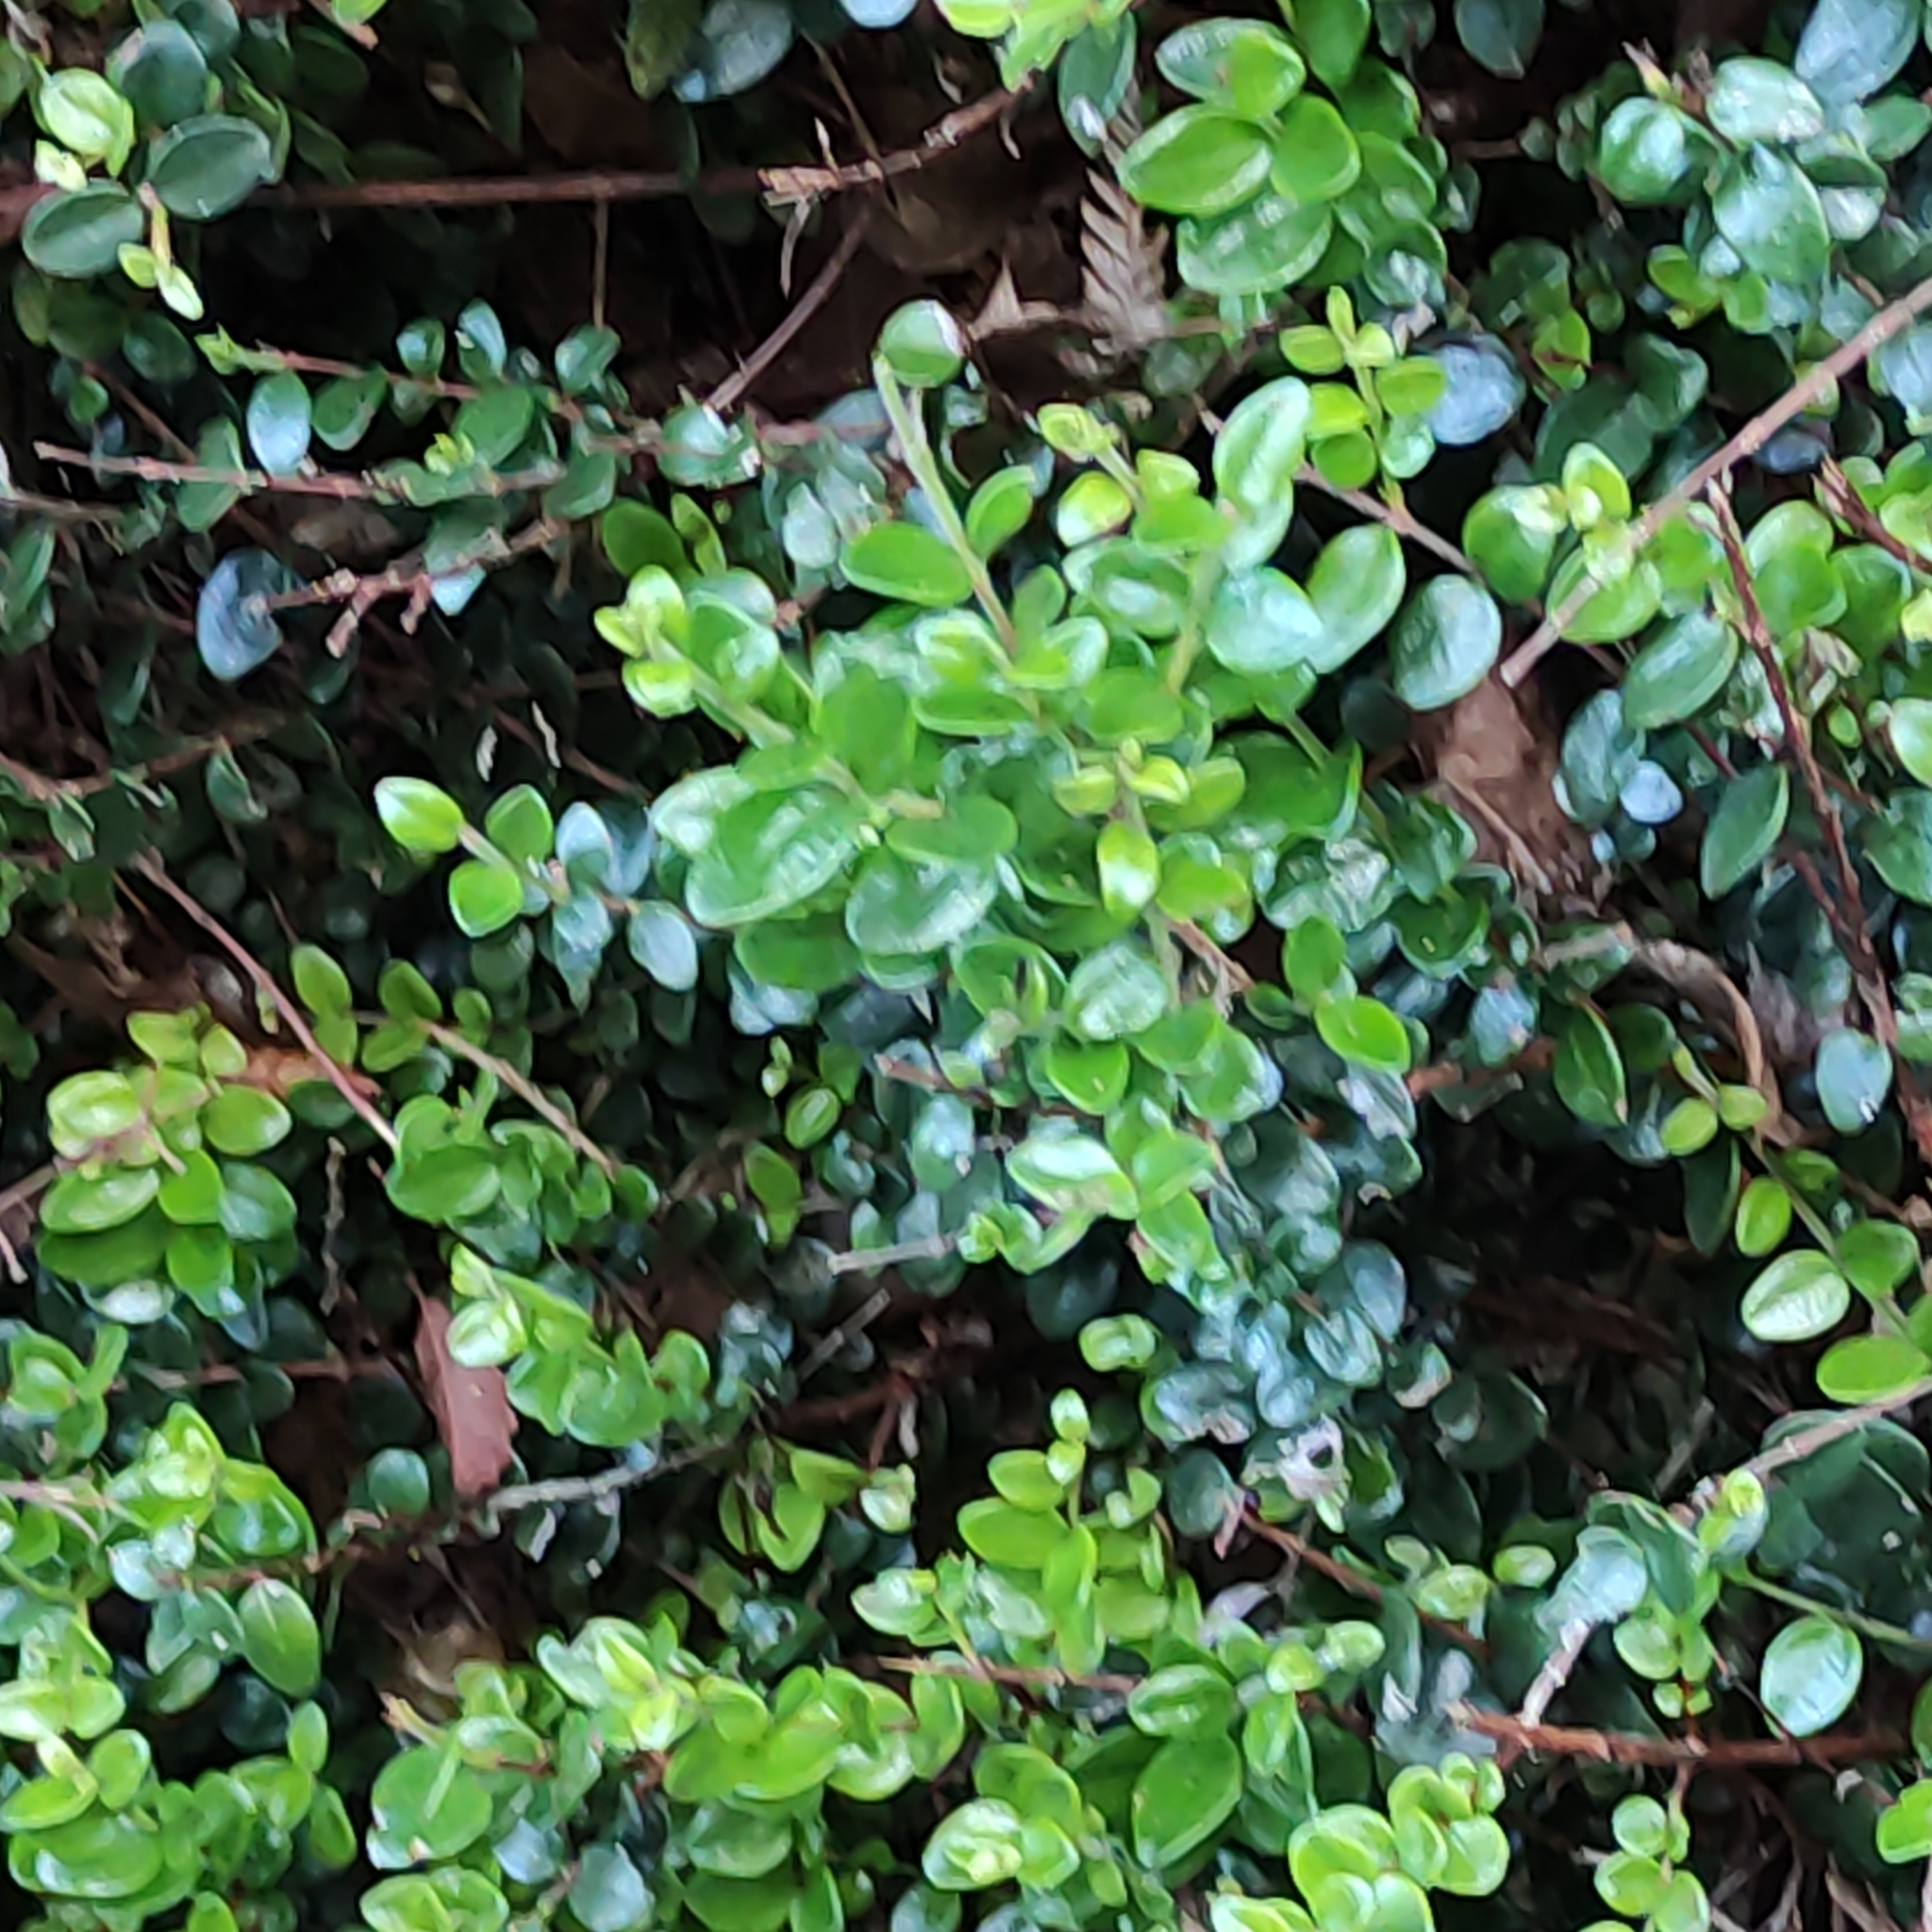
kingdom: Plantae
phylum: Tracheophyta
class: Magnoliopsida
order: Myrtales
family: Myrtaceae
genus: Metrosideros
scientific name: Metrosideros perforata
